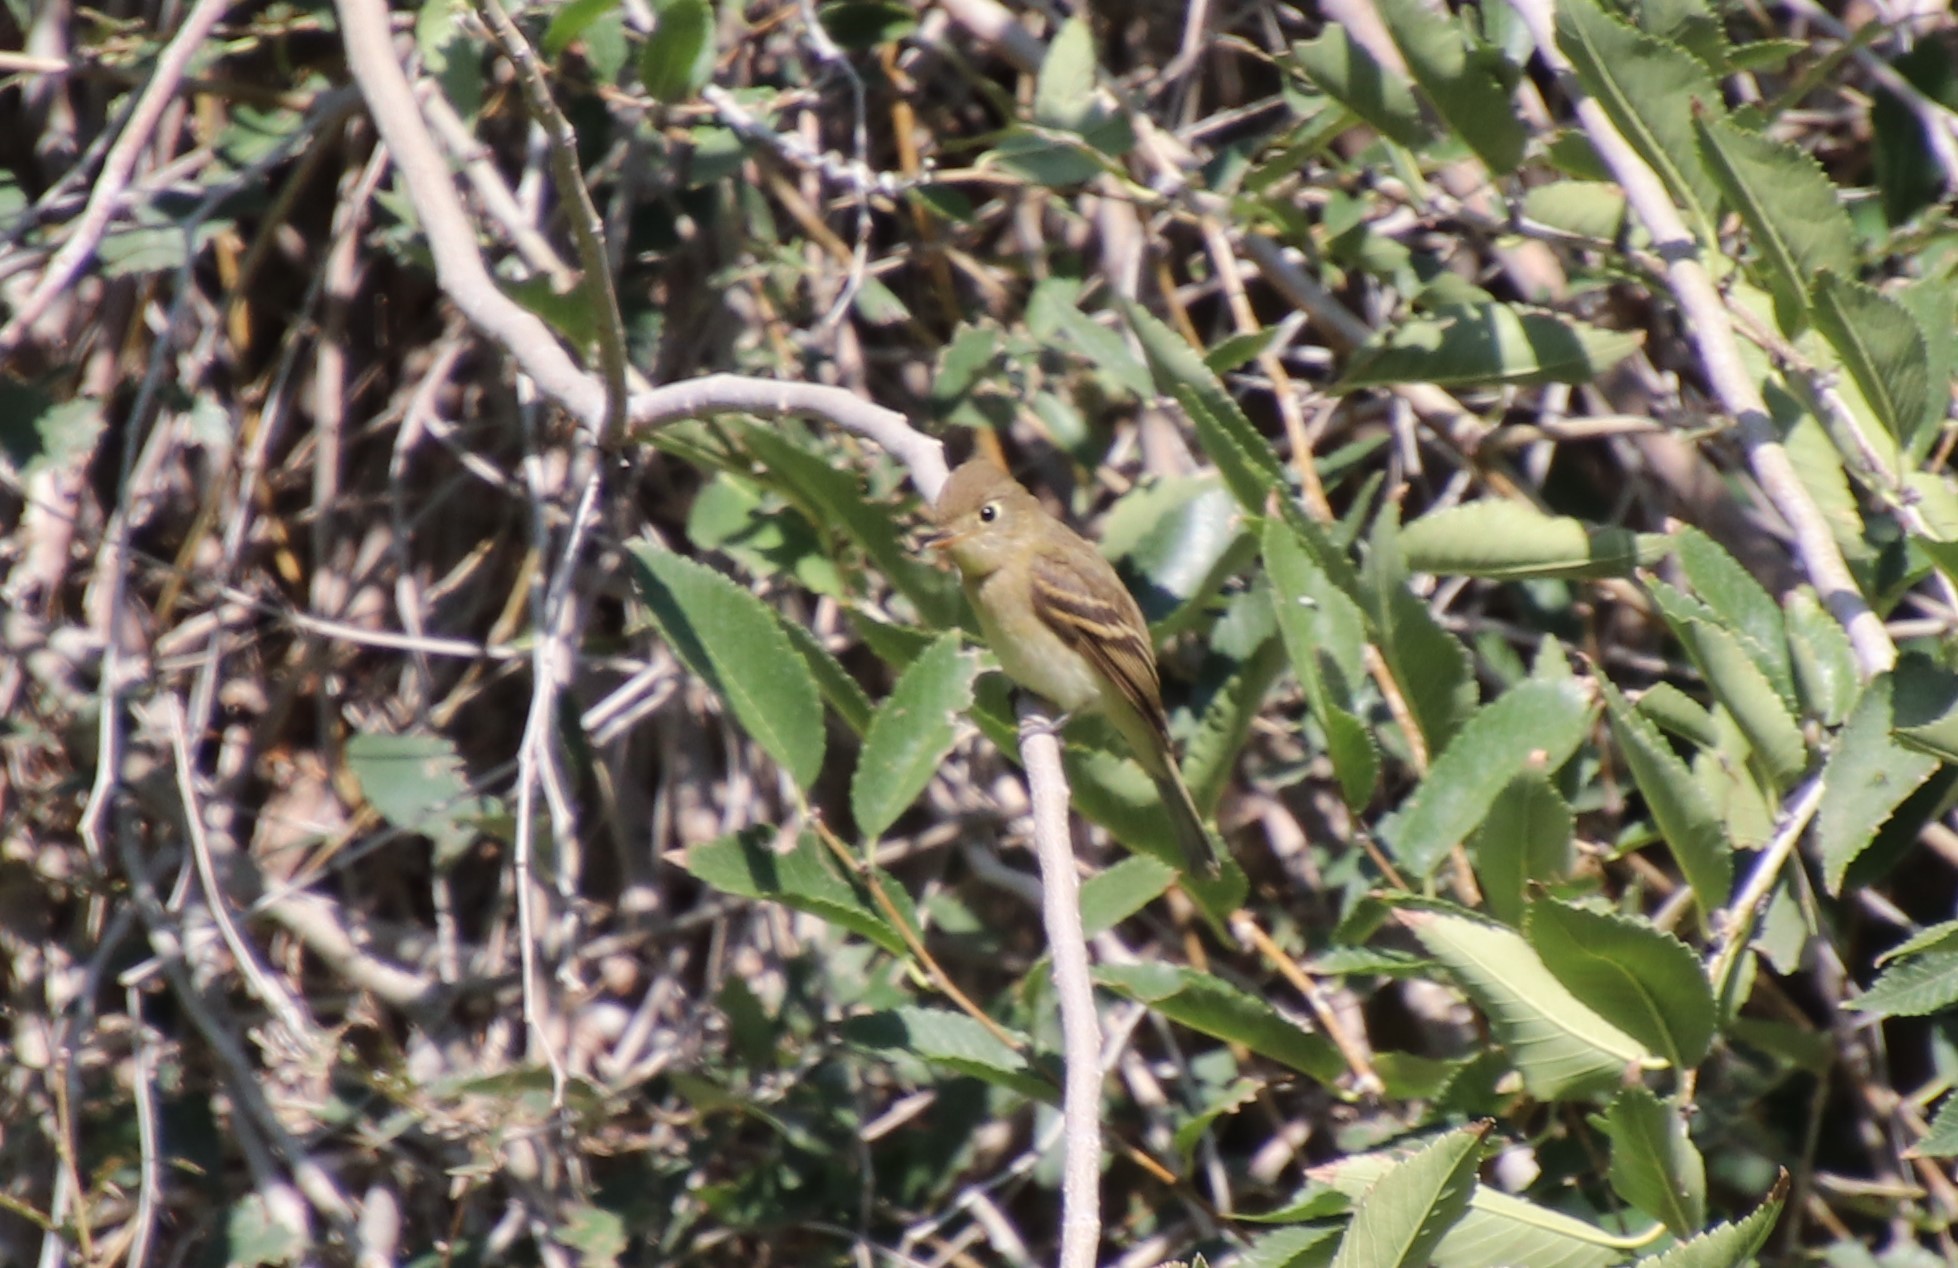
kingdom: Animalia
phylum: Chordata
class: Aves
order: Passeriformes
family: Tyrannidae
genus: Empidonax
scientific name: Empidonax difficilis
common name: Pacific-slope flycatcher
